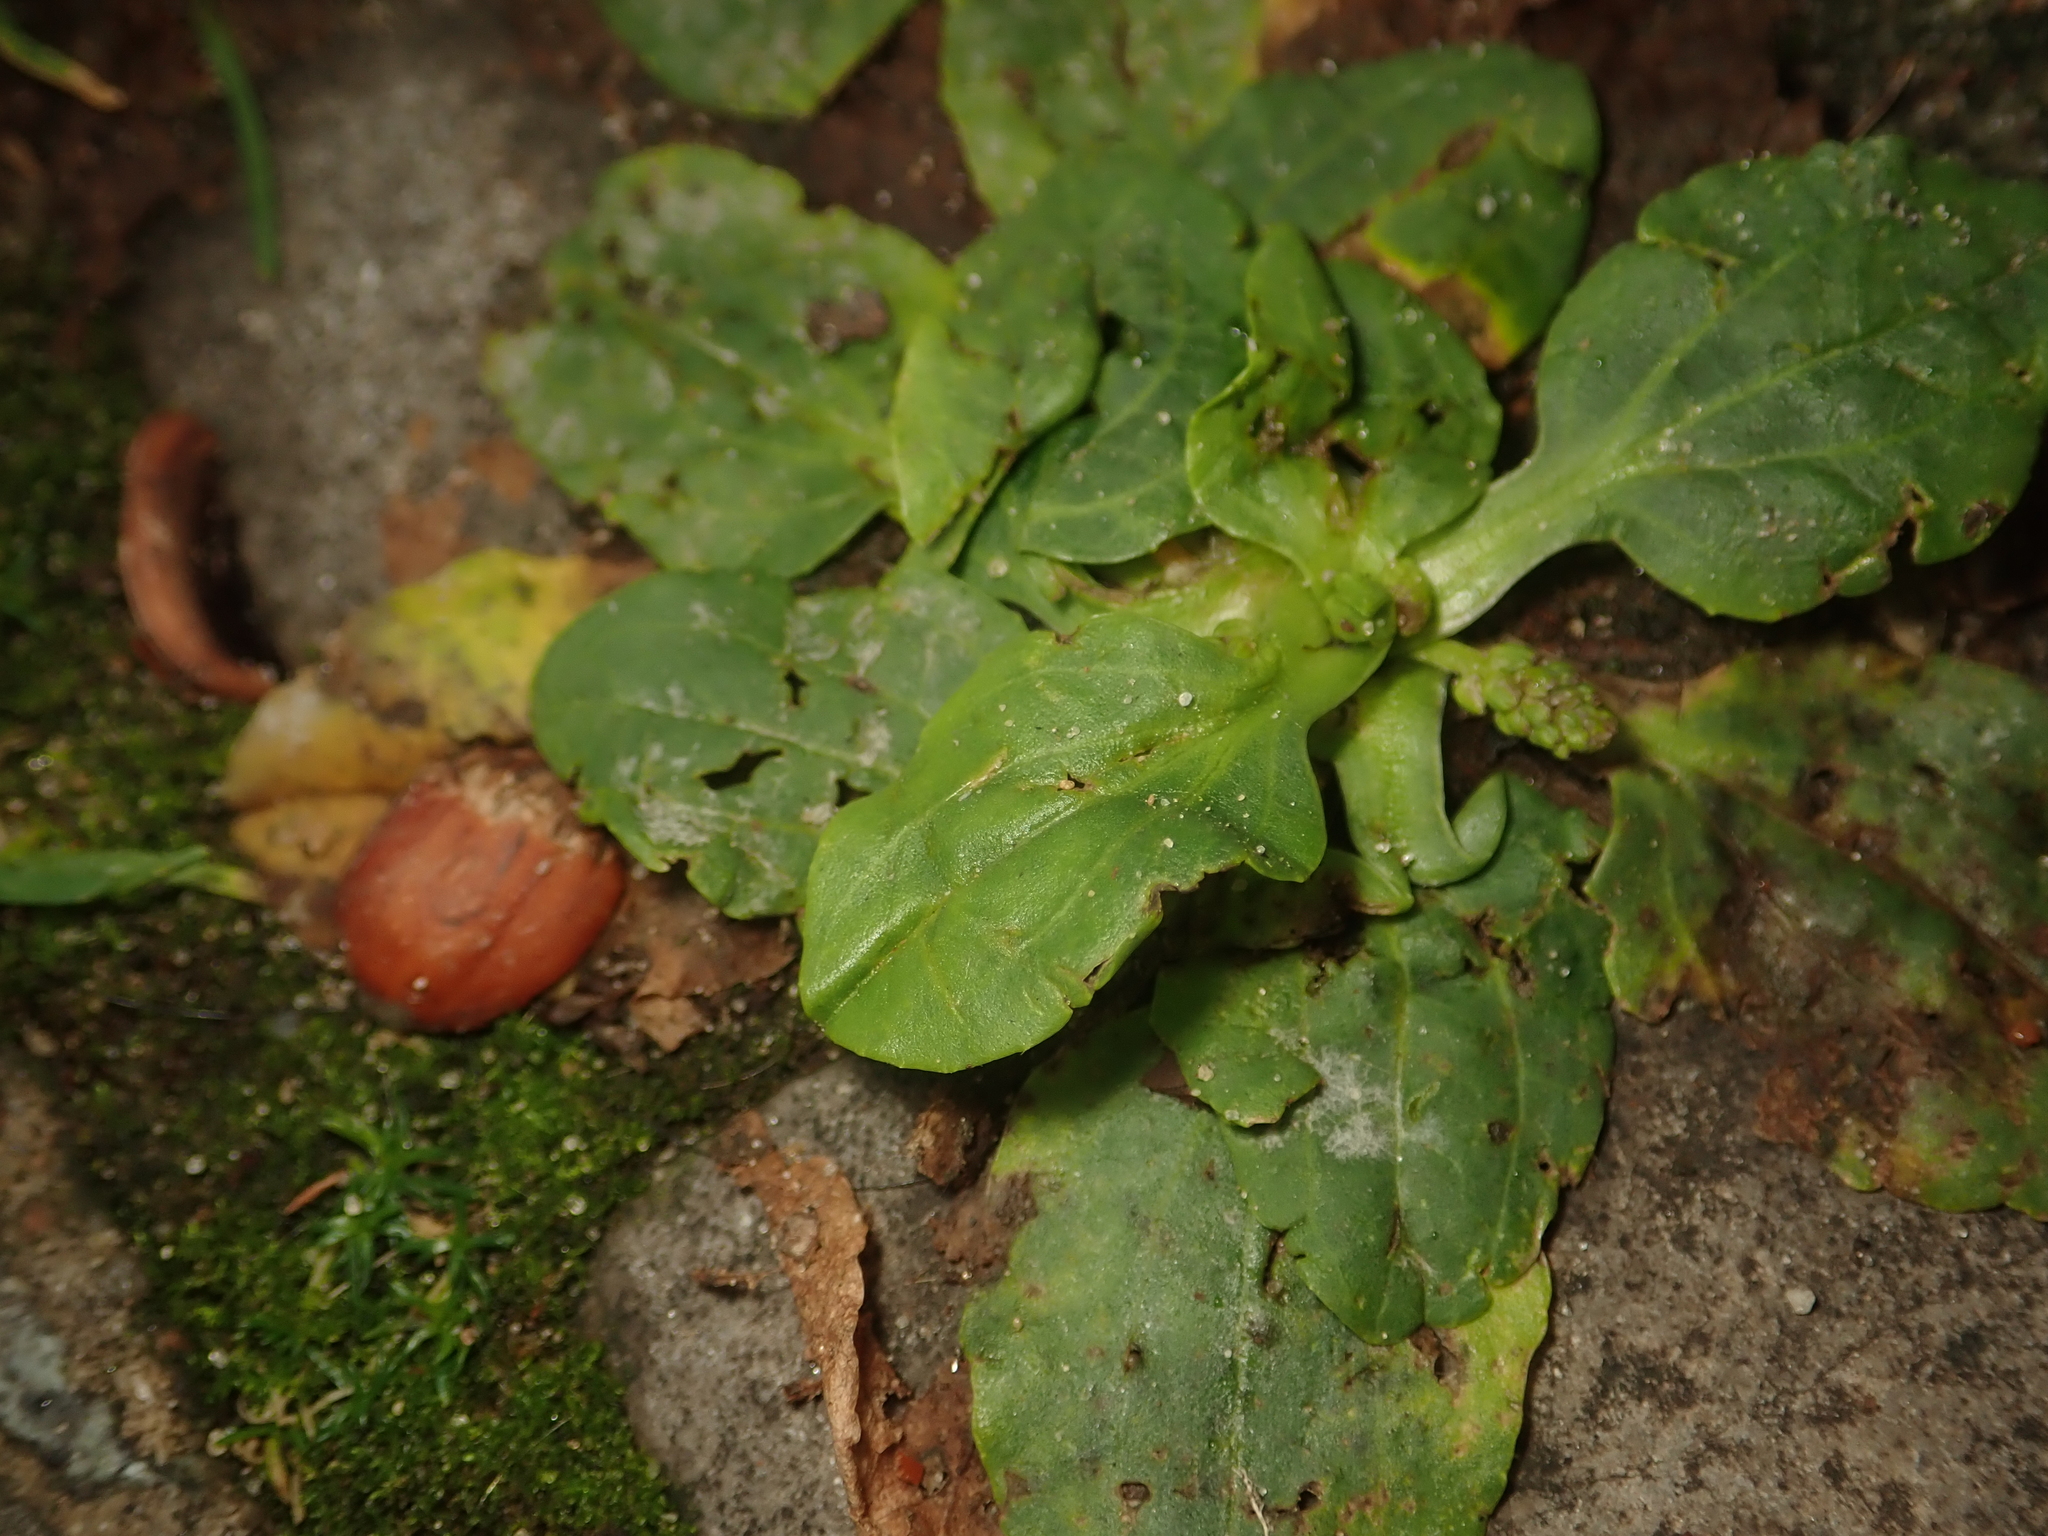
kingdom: Plantae
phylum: Tracheophyta
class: Magnoliopsida
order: Lamiales
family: Plantaginaceae
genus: Plantago
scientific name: Plantago major
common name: Common plantain
